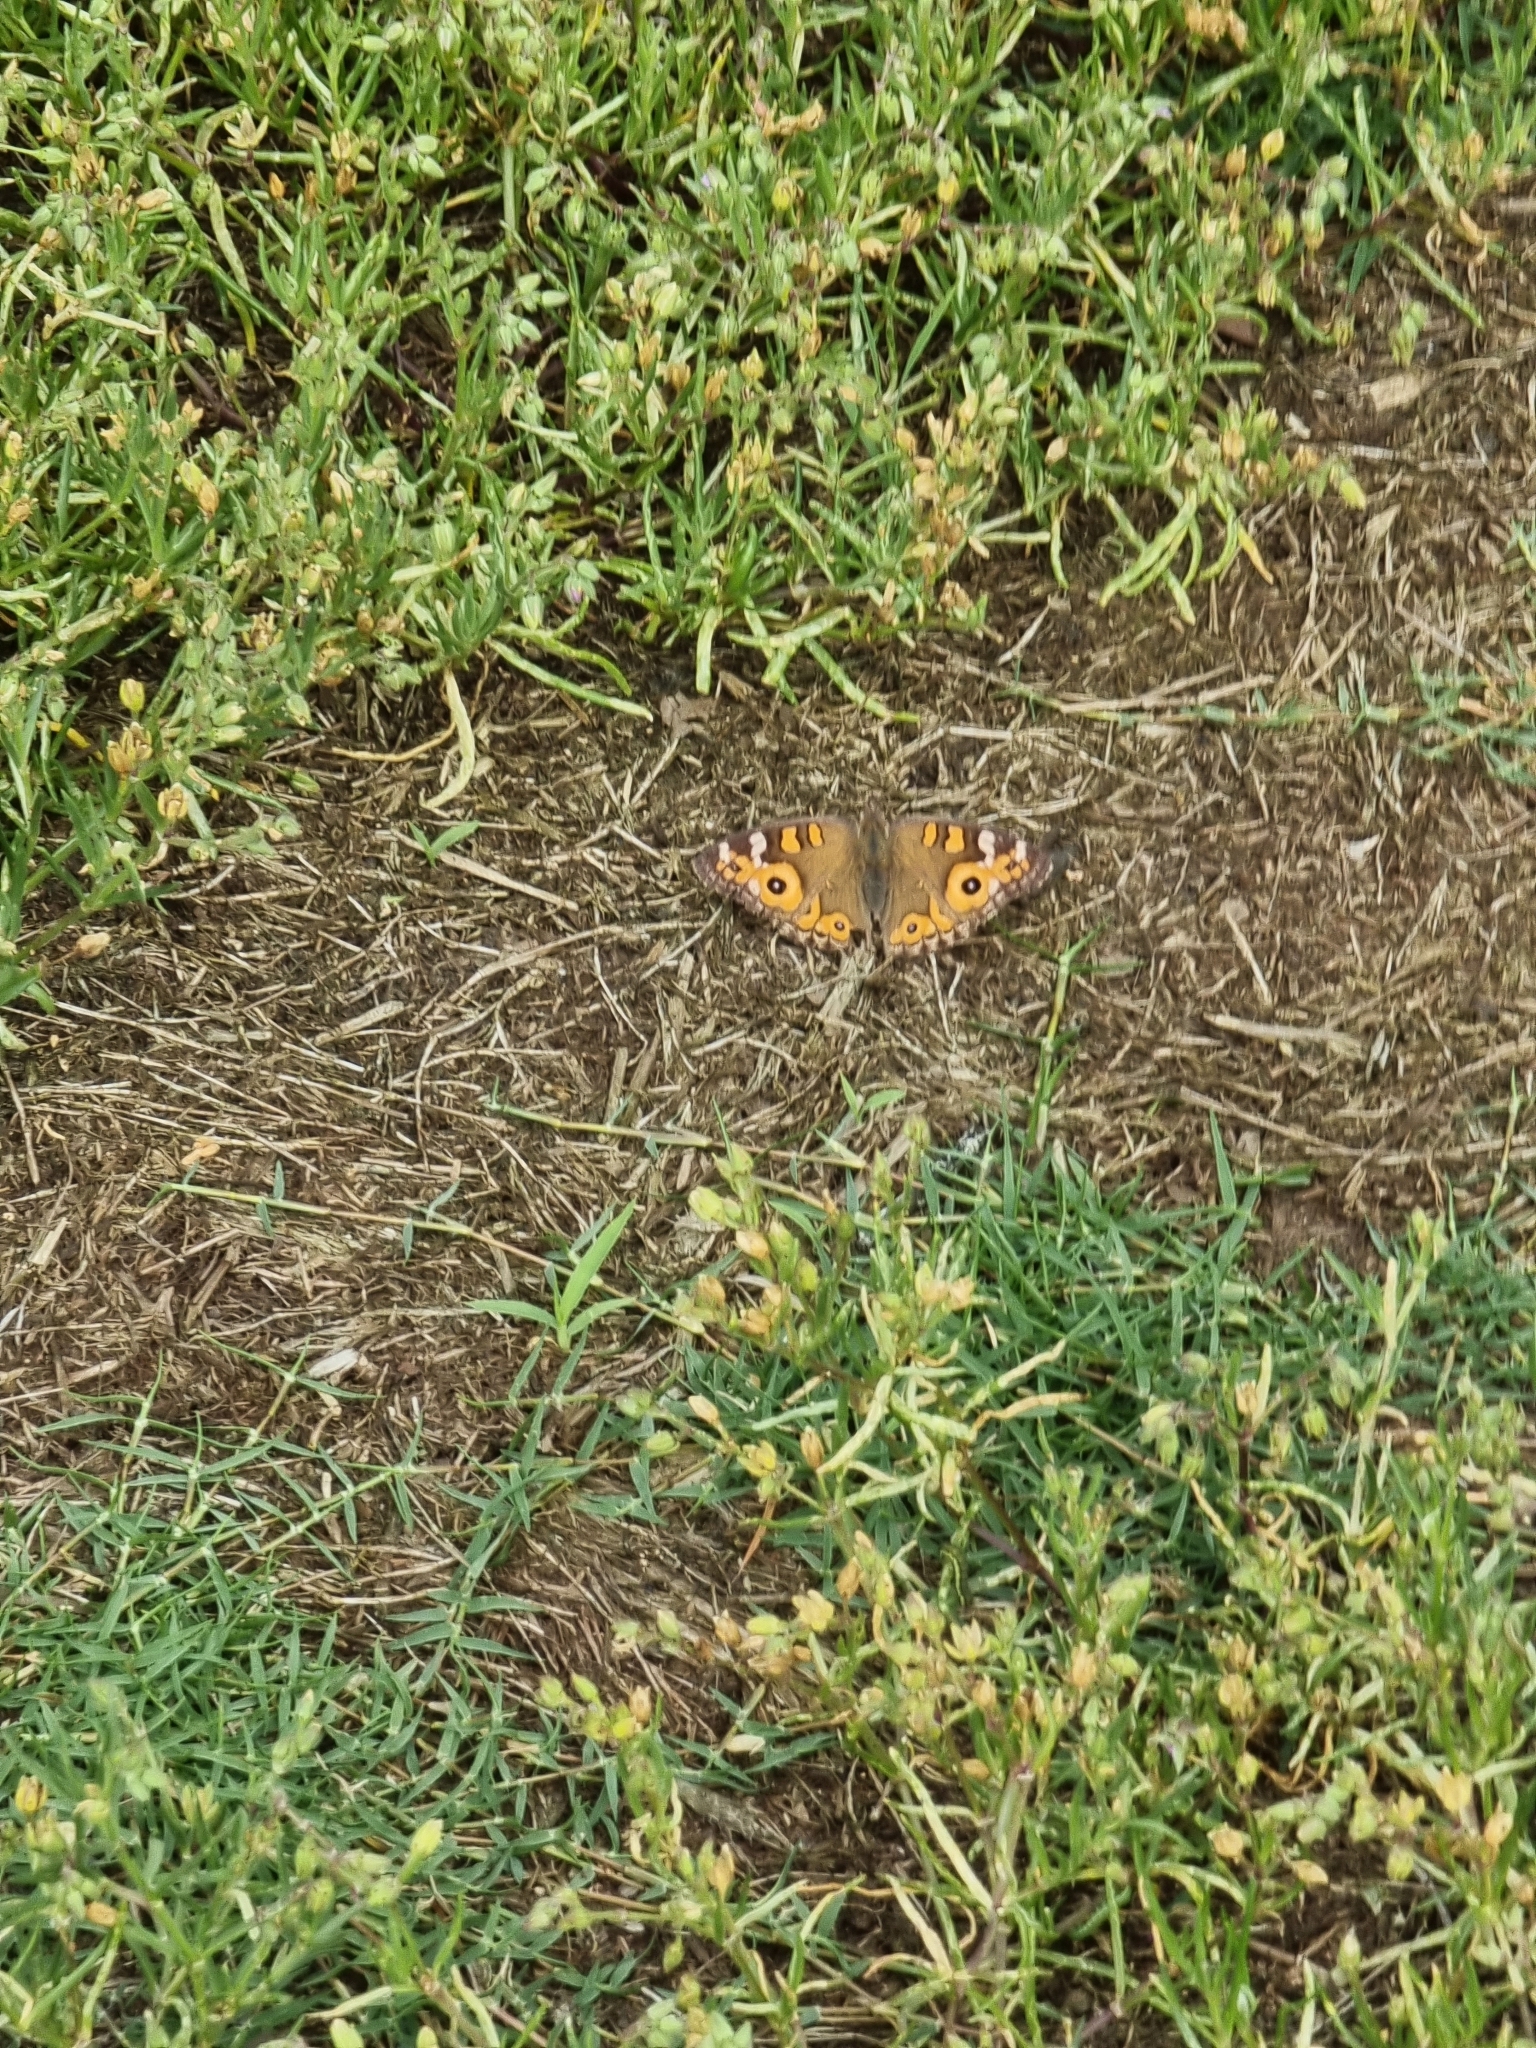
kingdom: Animalia
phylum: Arthropoda
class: Insecta
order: Lepidoptera
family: Nymphalidae
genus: Junonia
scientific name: Junonia villida
